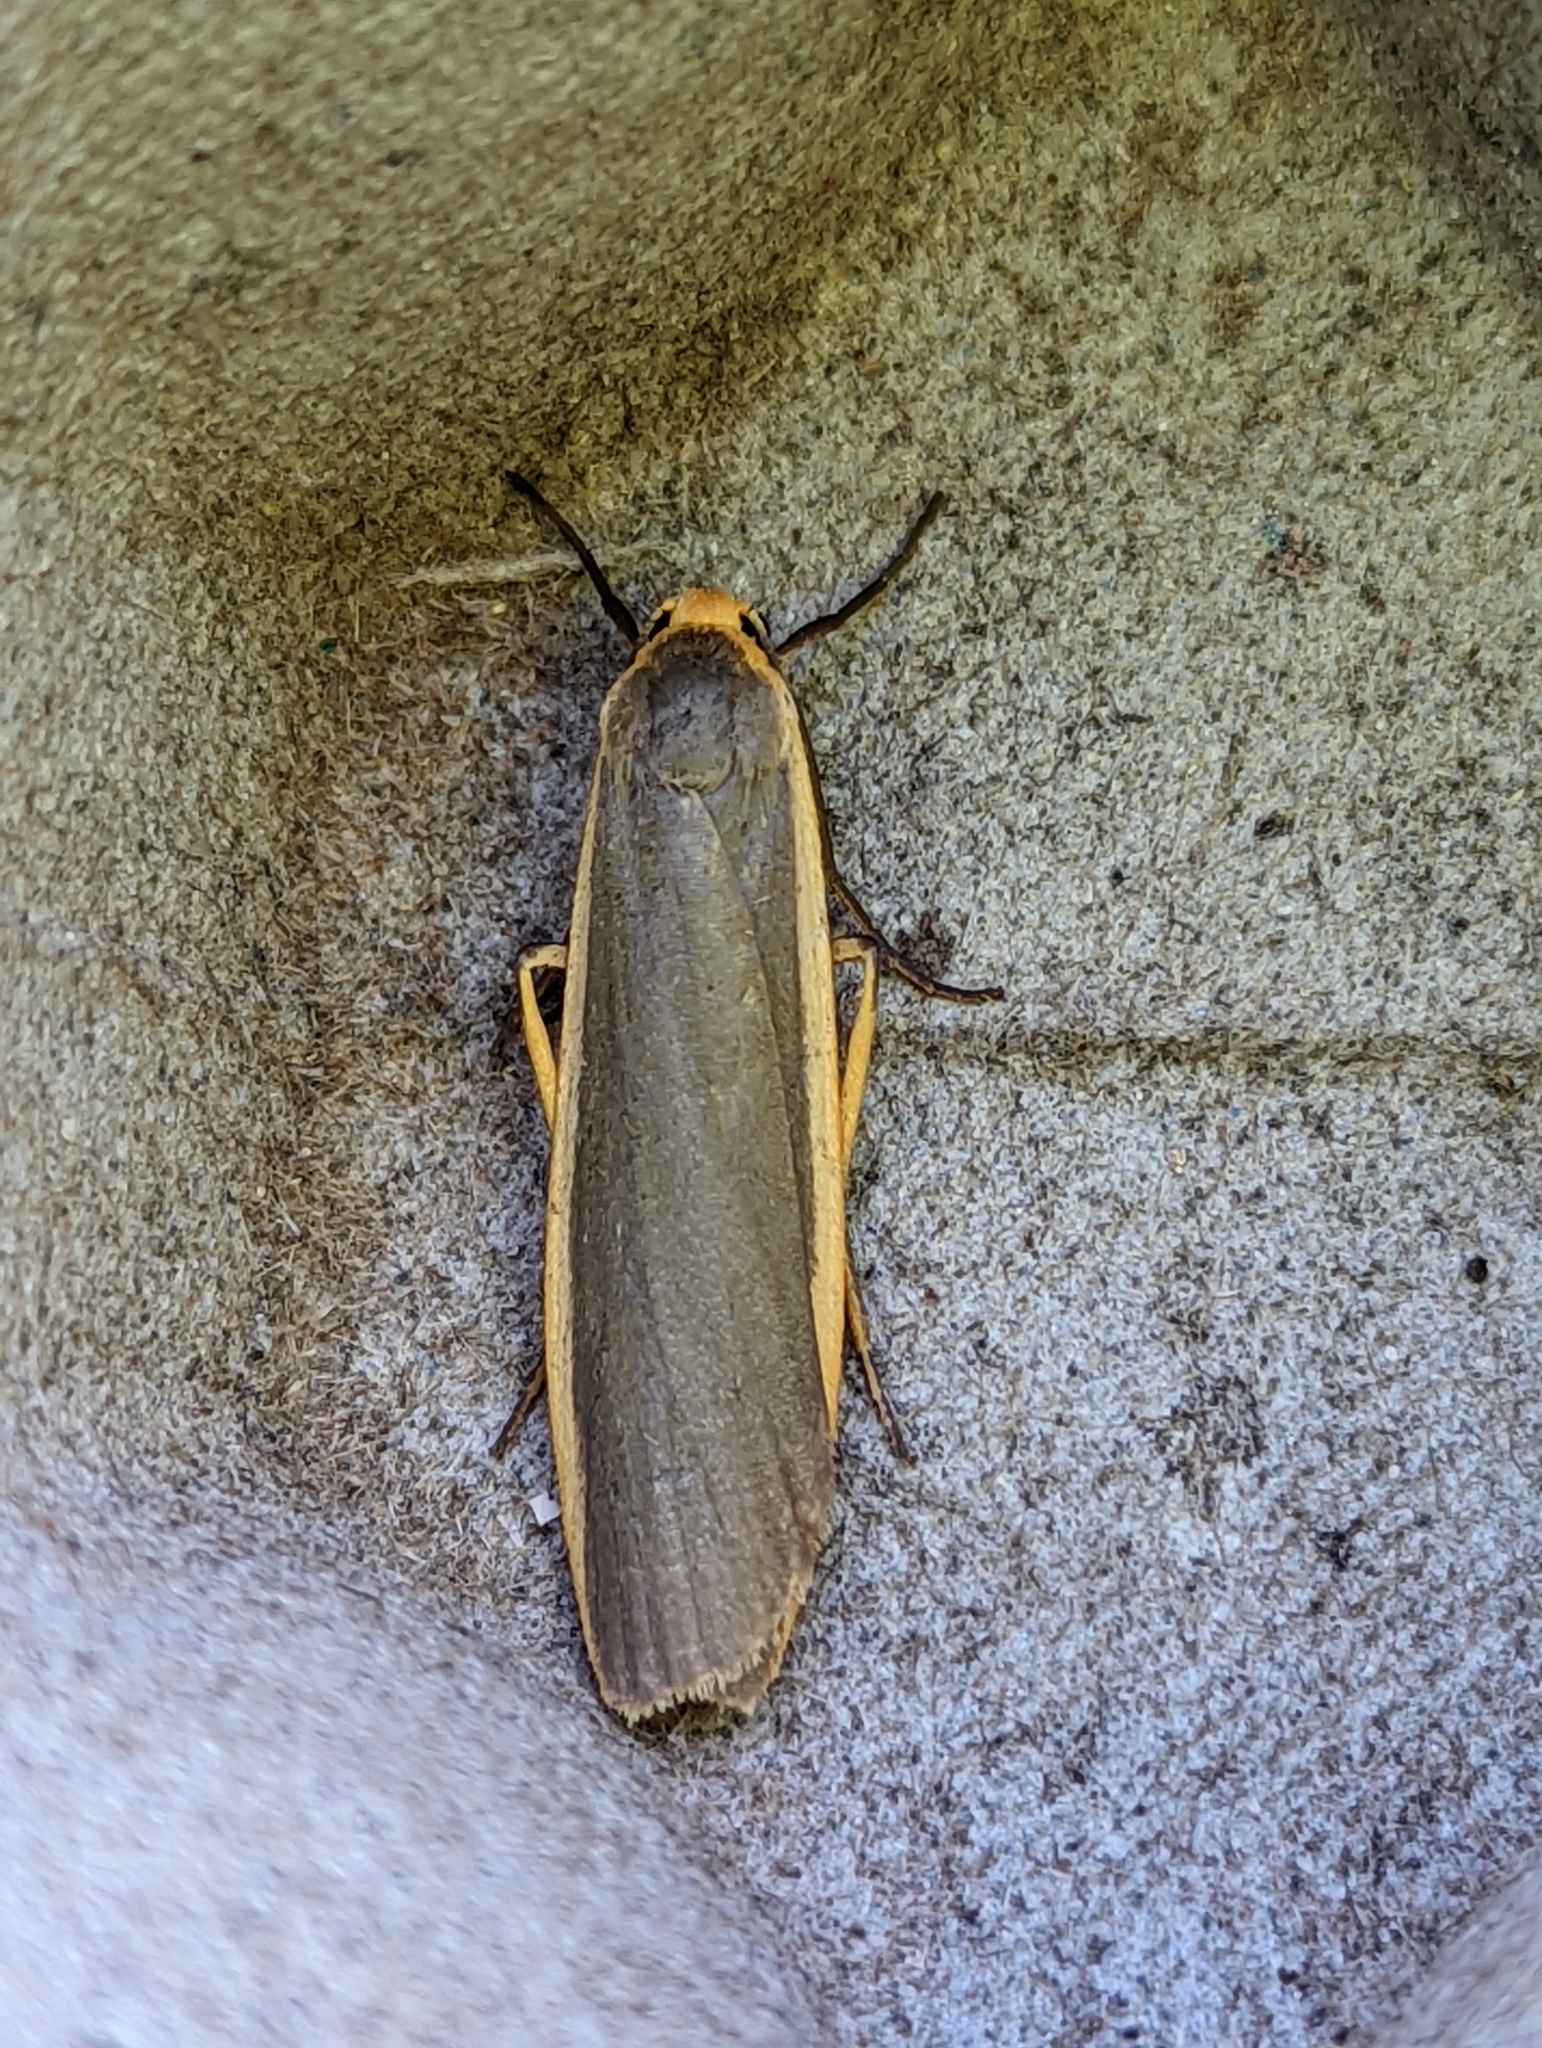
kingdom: Animalia
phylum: Arthropoda
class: Insecta
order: Lepidoptera
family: Erebidae
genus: Nyea
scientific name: Nyea lurideola
